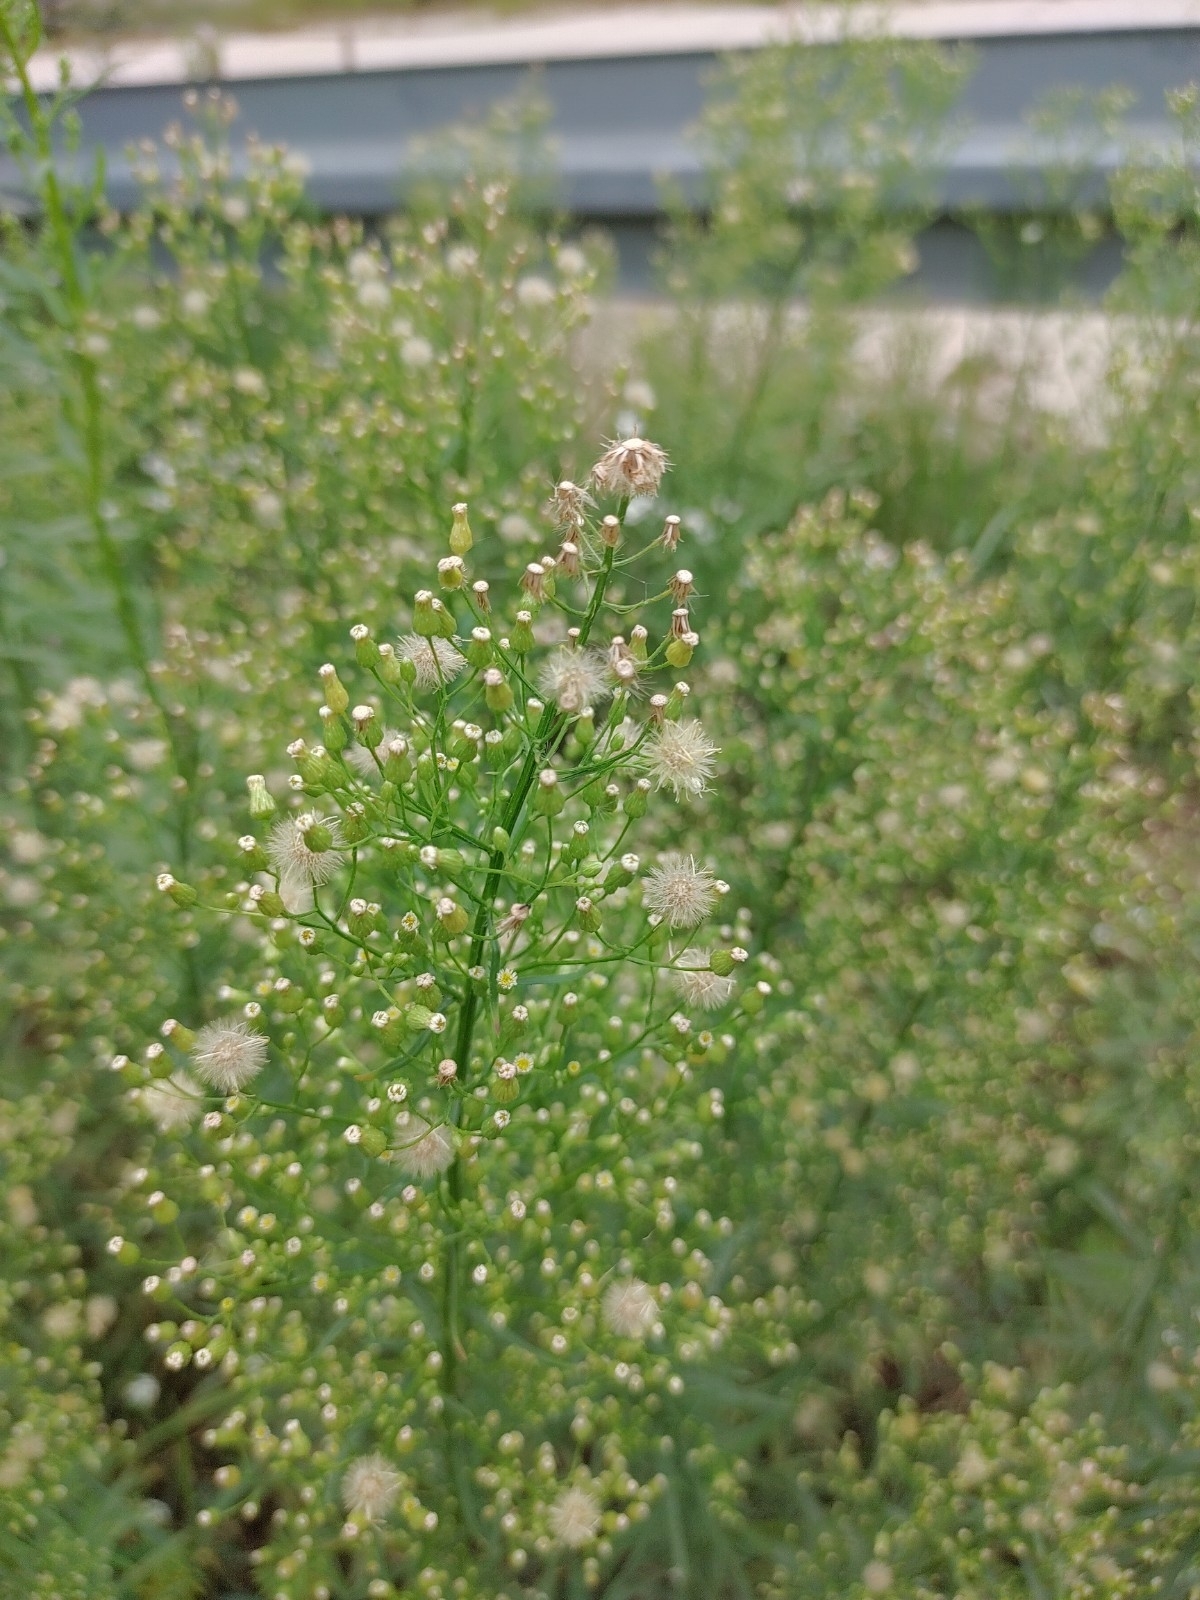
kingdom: Plantae
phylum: Tracheophyta
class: Magnoliopsida
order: Asterales
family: Asteraceae
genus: Erigeron
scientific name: Erigeron canadensis
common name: Canadian fleabane
